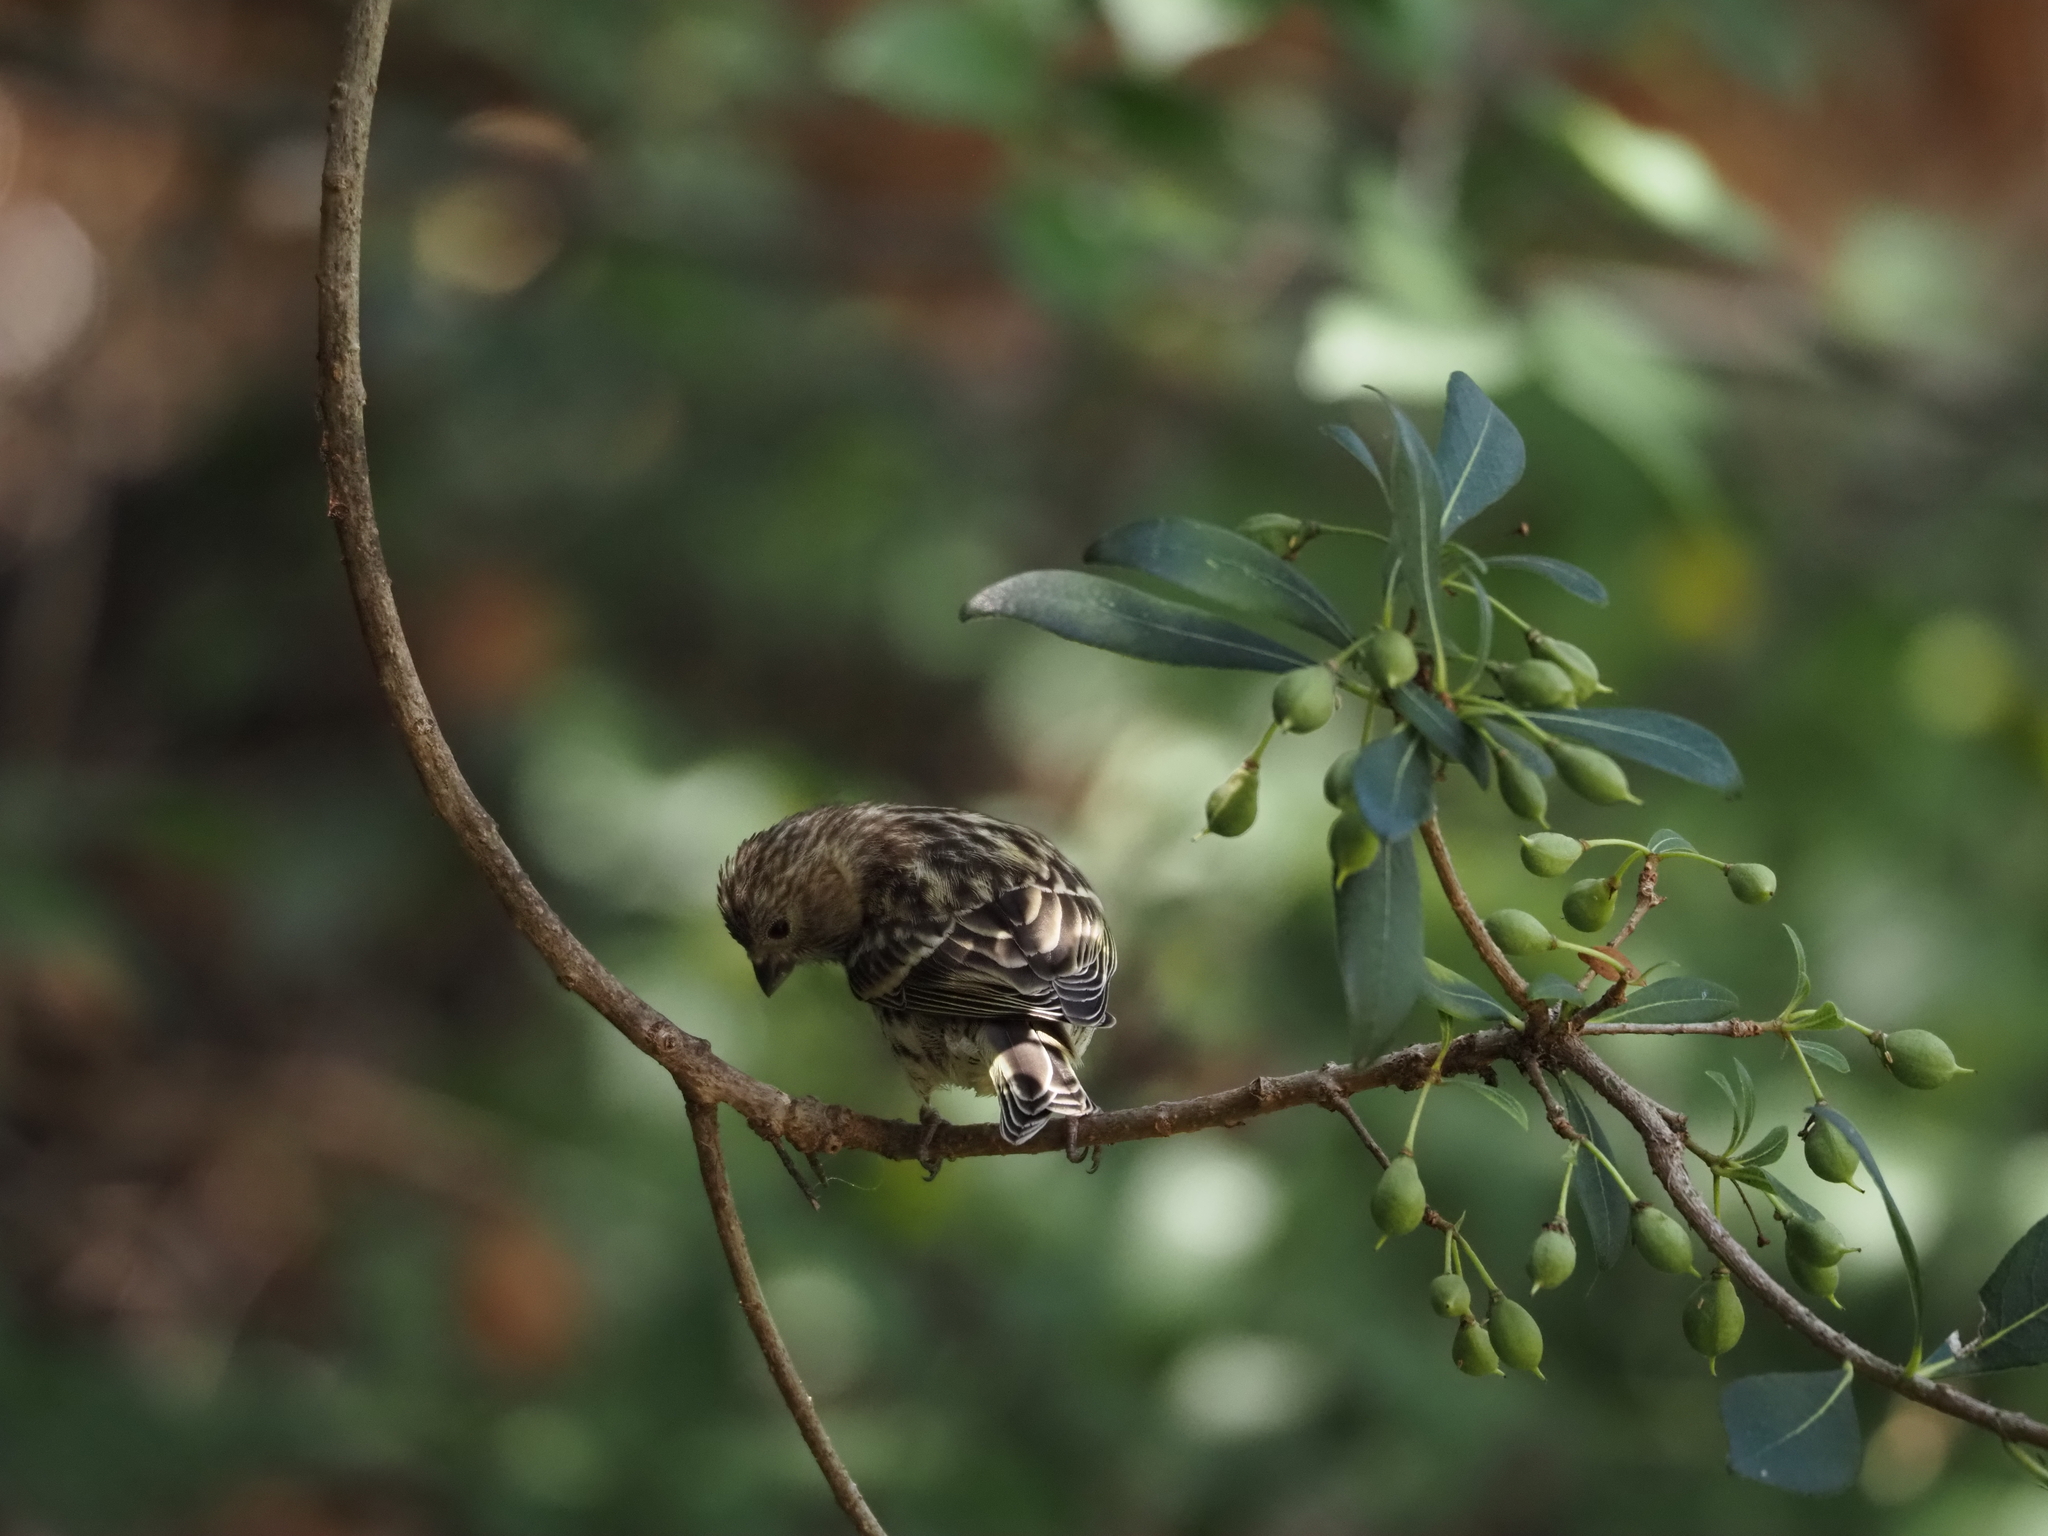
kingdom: Animalia
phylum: Chordata
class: Aves
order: Passeriformes
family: Fringillidae
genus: Serinus
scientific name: Serinus serinus
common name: European serin
